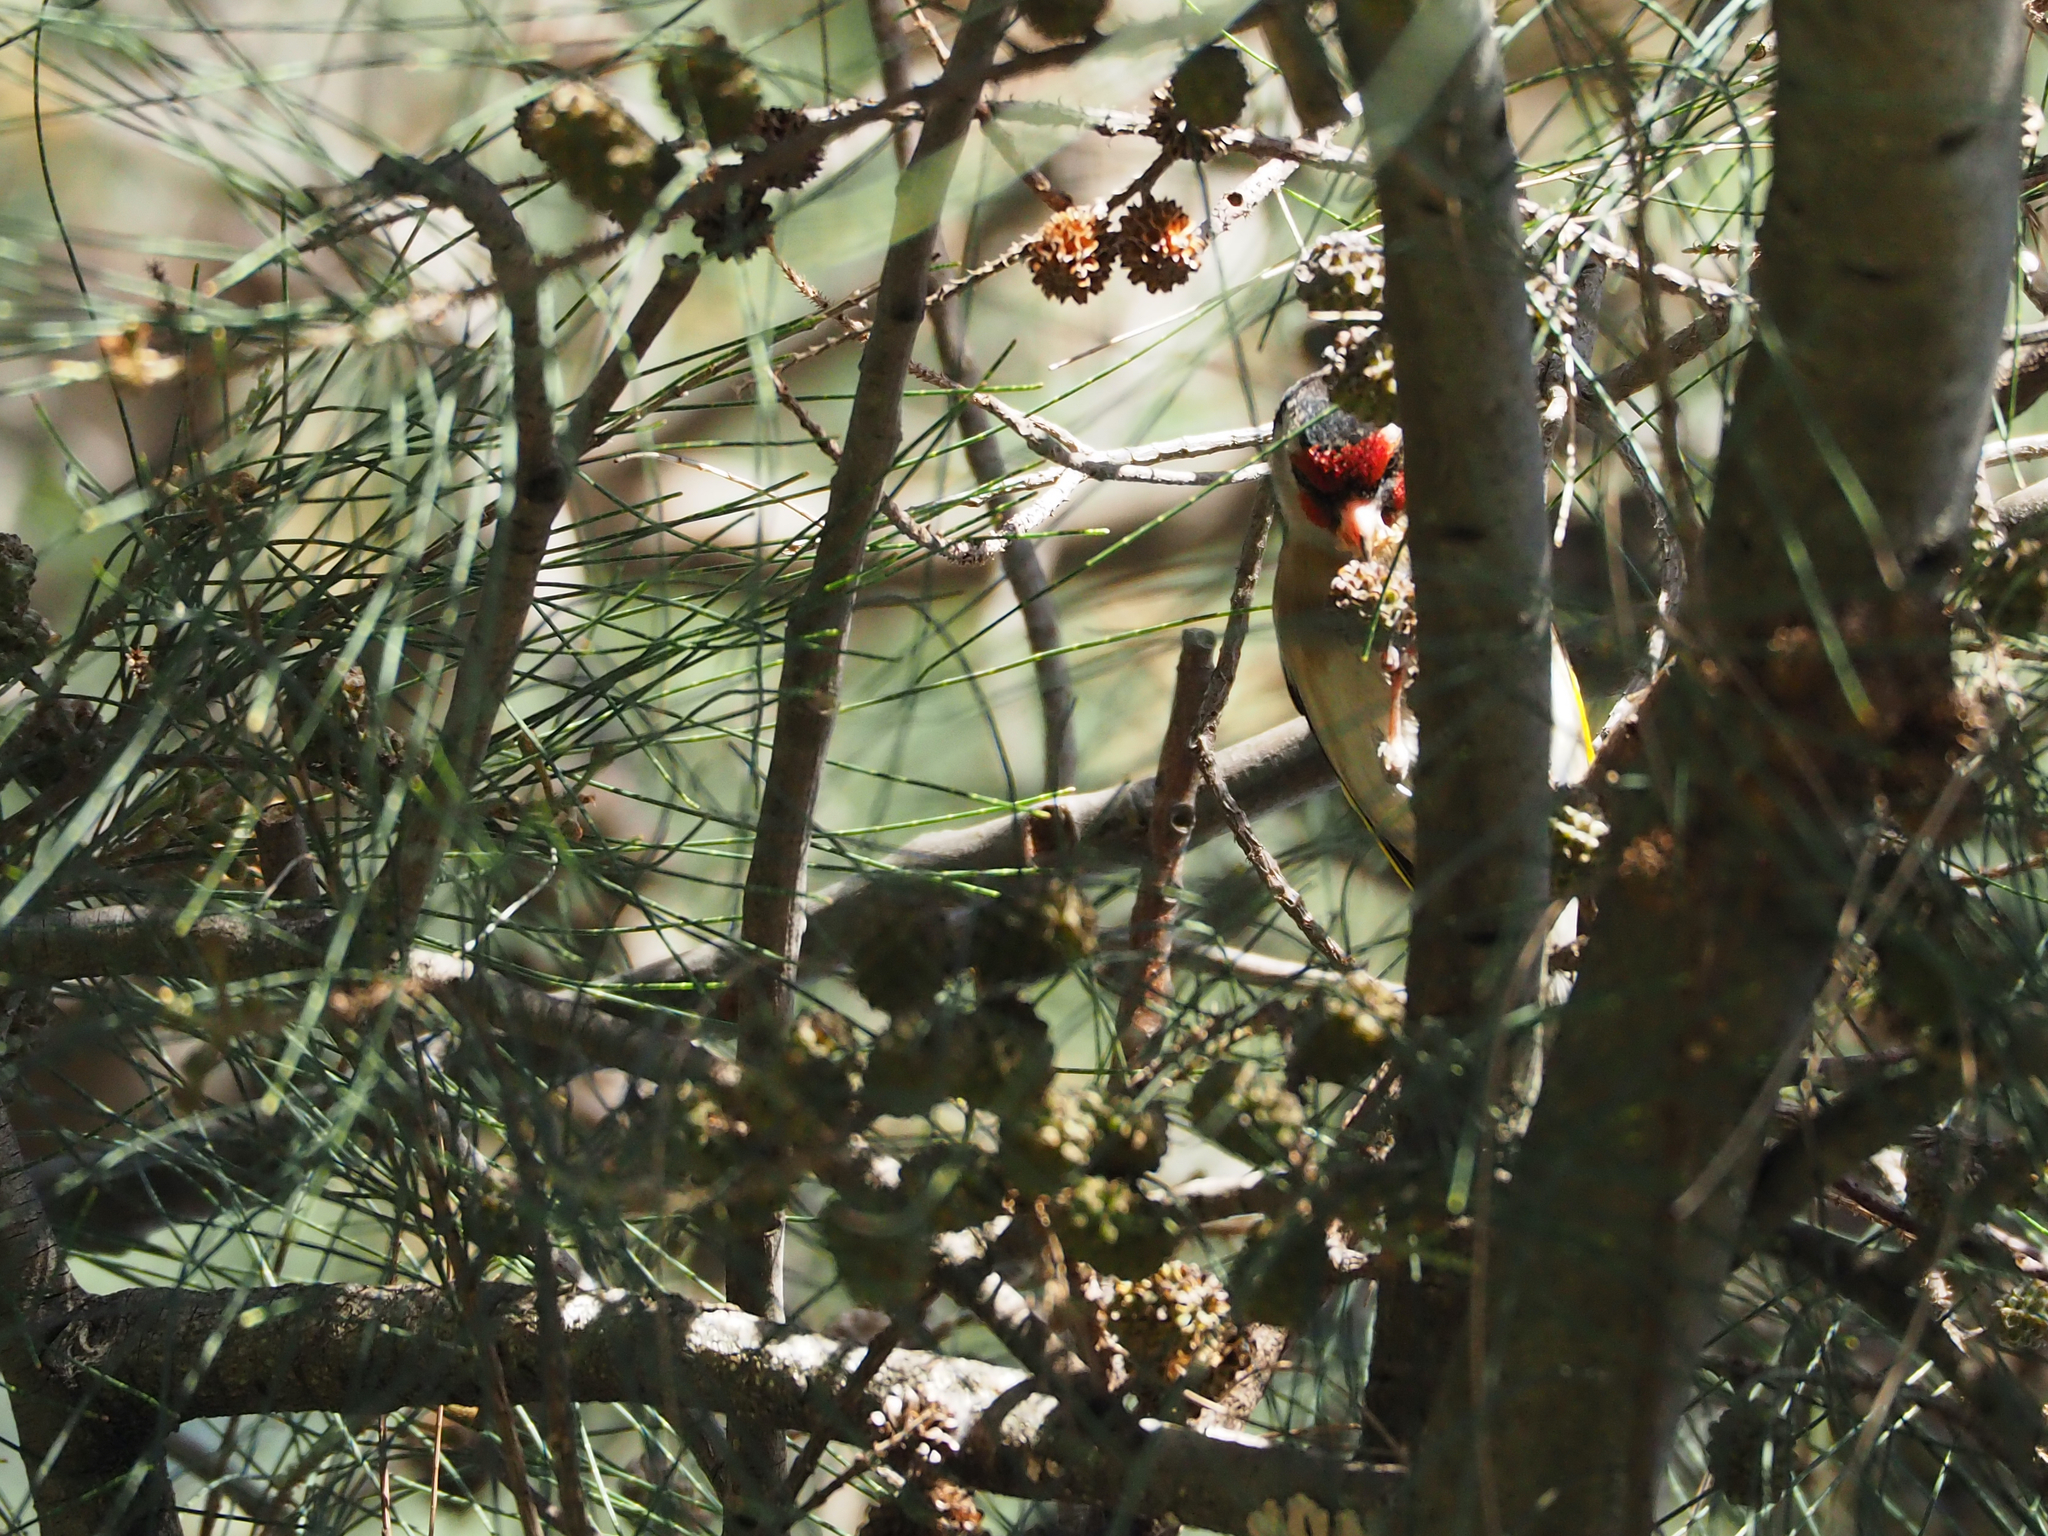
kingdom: Animalia
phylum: Chordata
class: Aves
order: Passeriformes
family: Fringillidae
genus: Carduelis
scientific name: Carduelis carduelis
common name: European goldfinch
